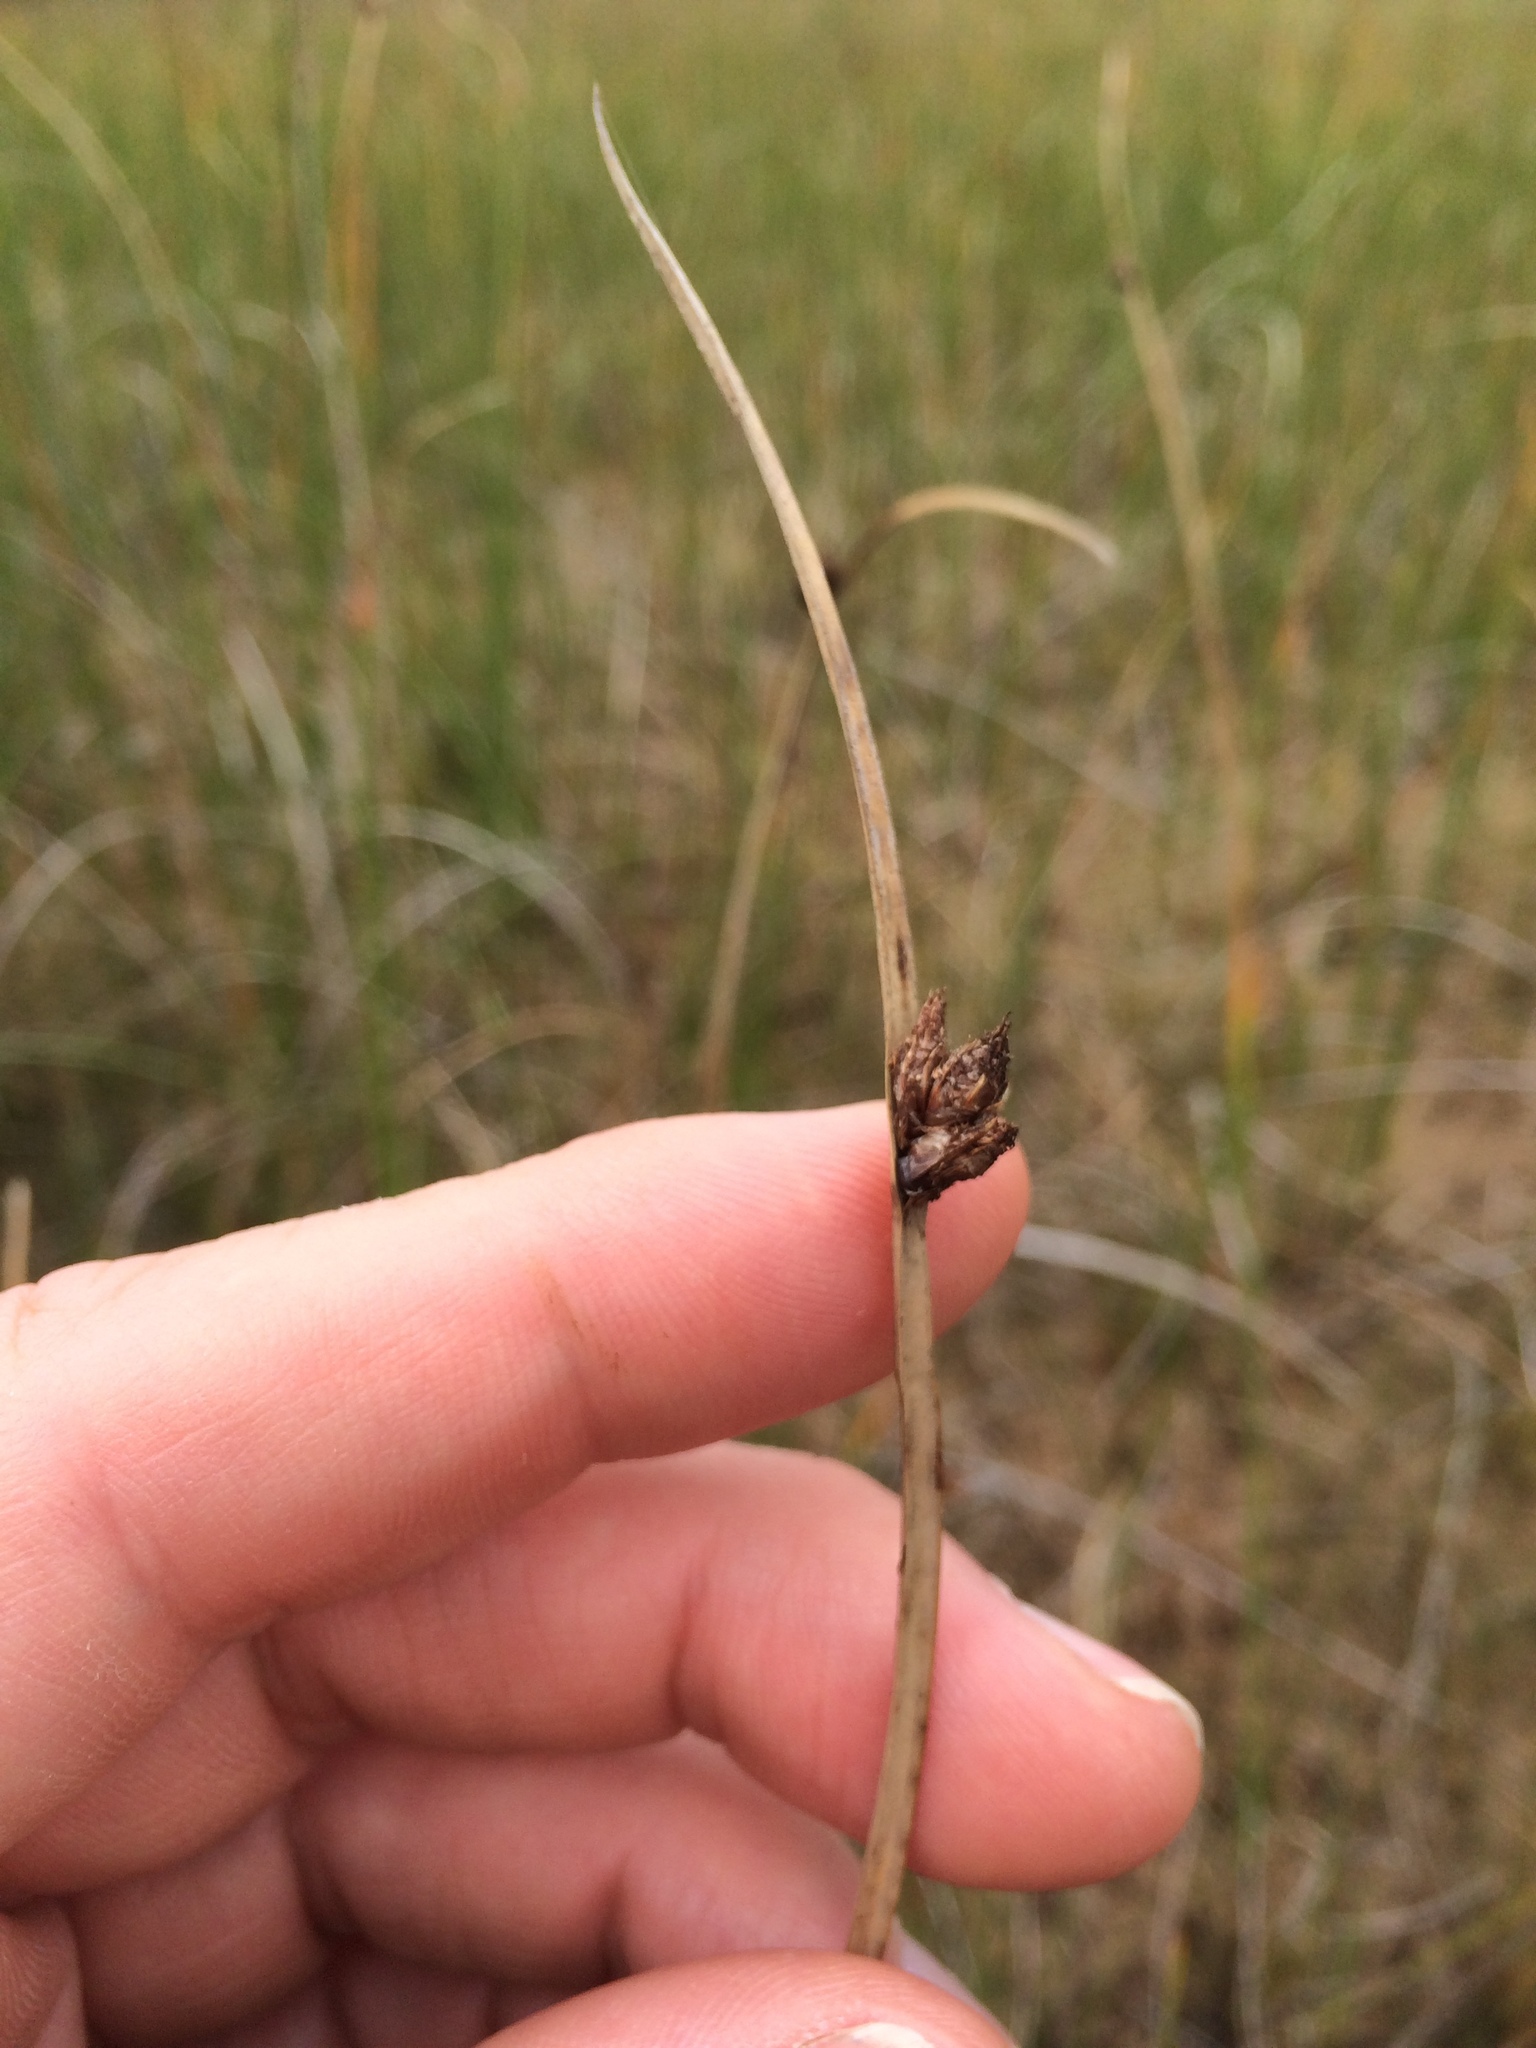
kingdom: Plantae
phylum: Tracheophyta
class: Liliopsida
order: Poales
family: Cyperaceae
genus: Schoenoplectus
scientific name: Schoenoplectus pungens
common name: Sharp club-rush
